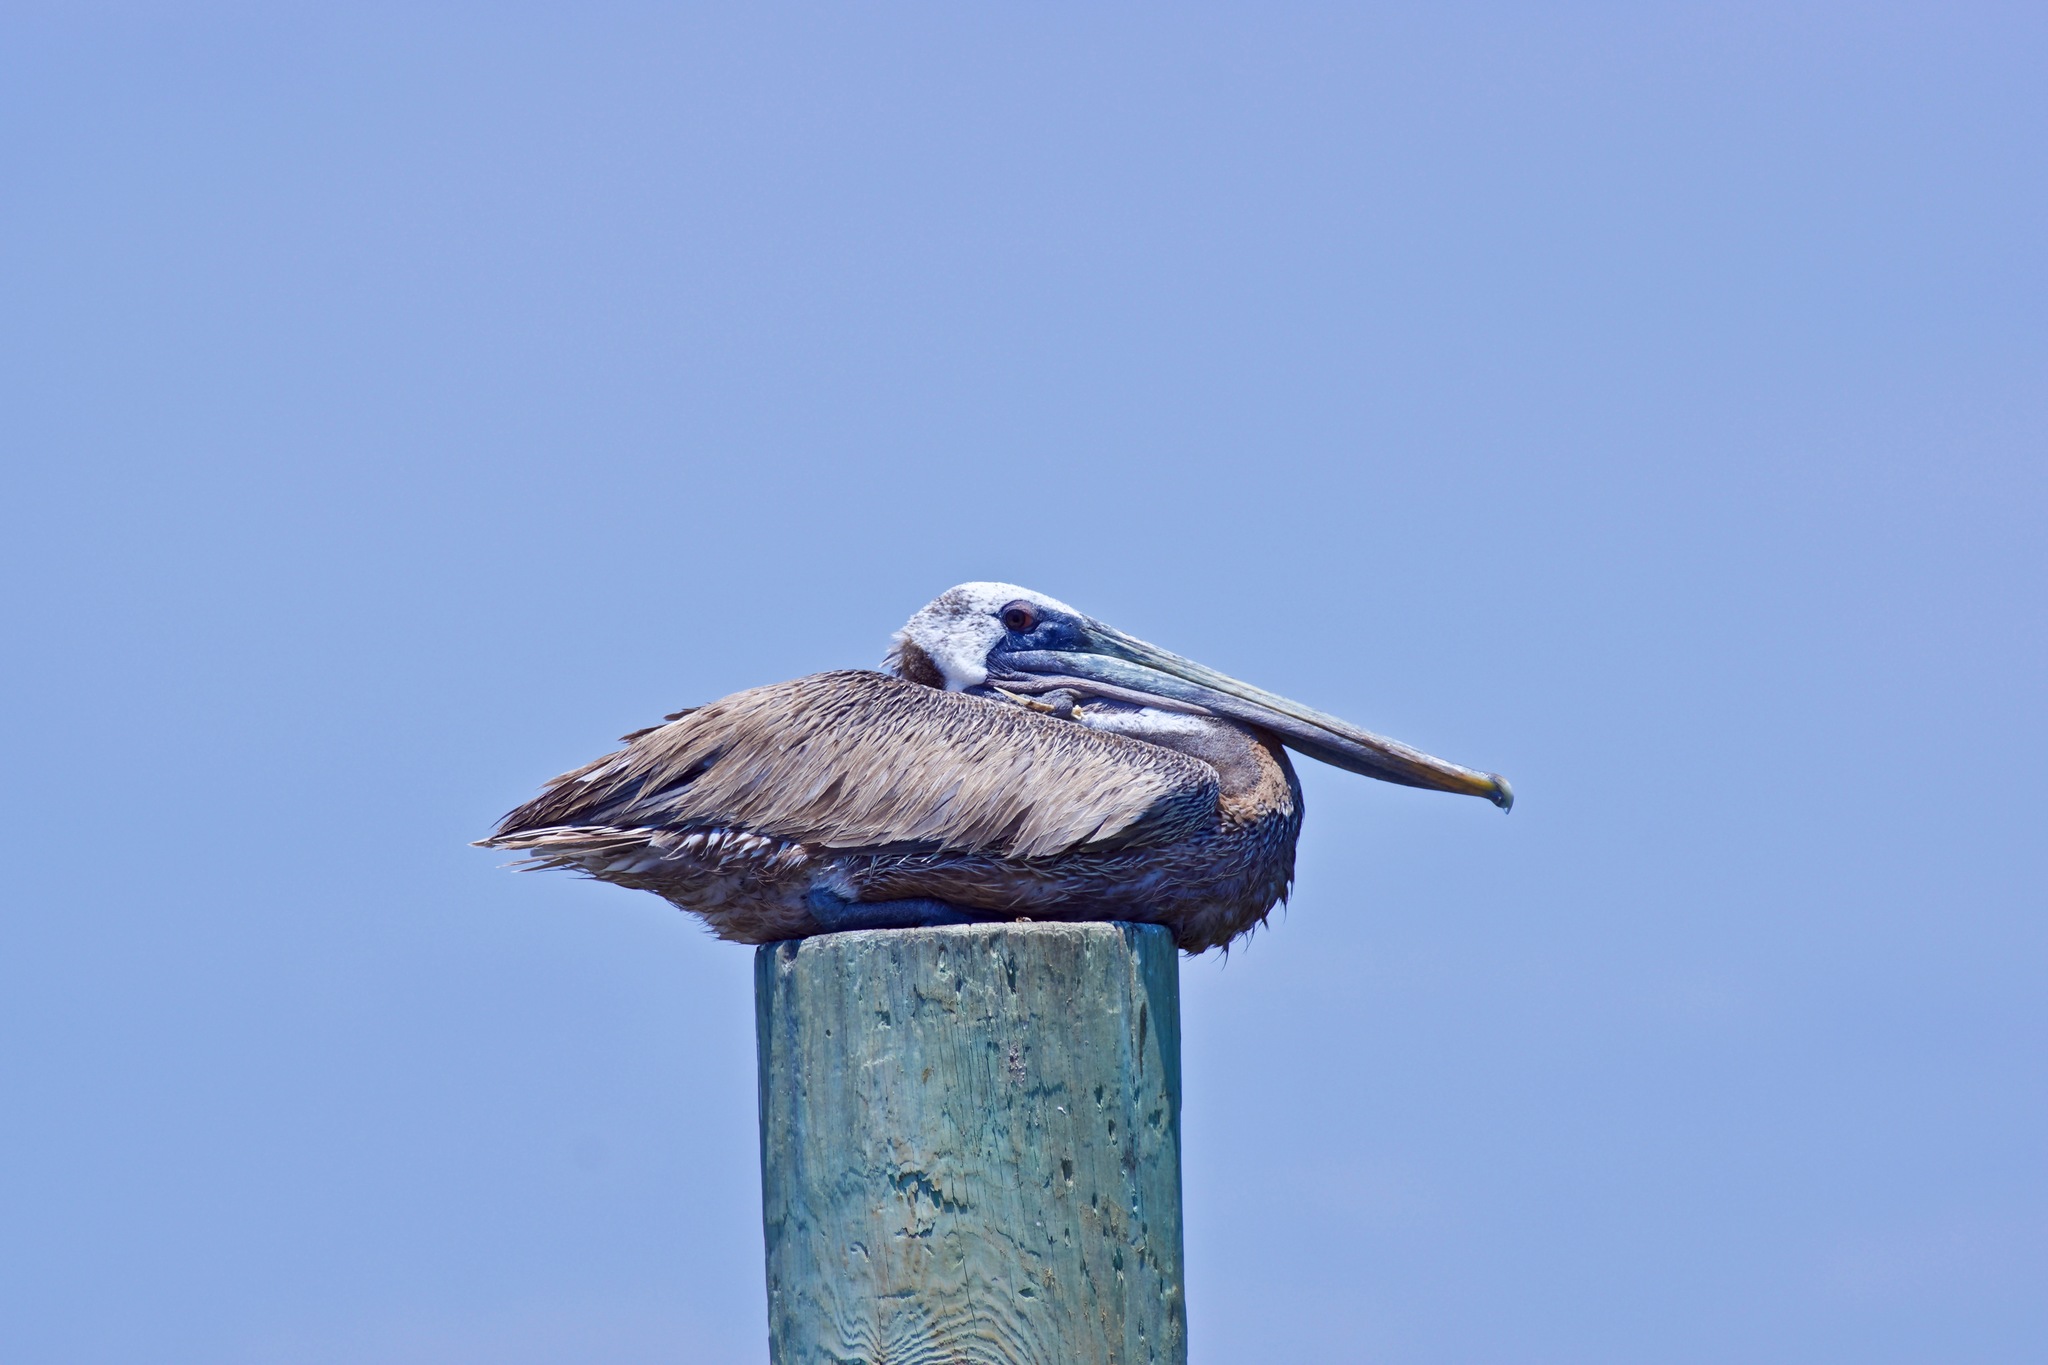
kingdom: Animalia
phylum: Chordata
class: Aves
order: Pelecaniformes
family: Pelecanidae
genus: Pelecanus
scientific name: Pelecanus occidentalis
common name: Brown pelican
